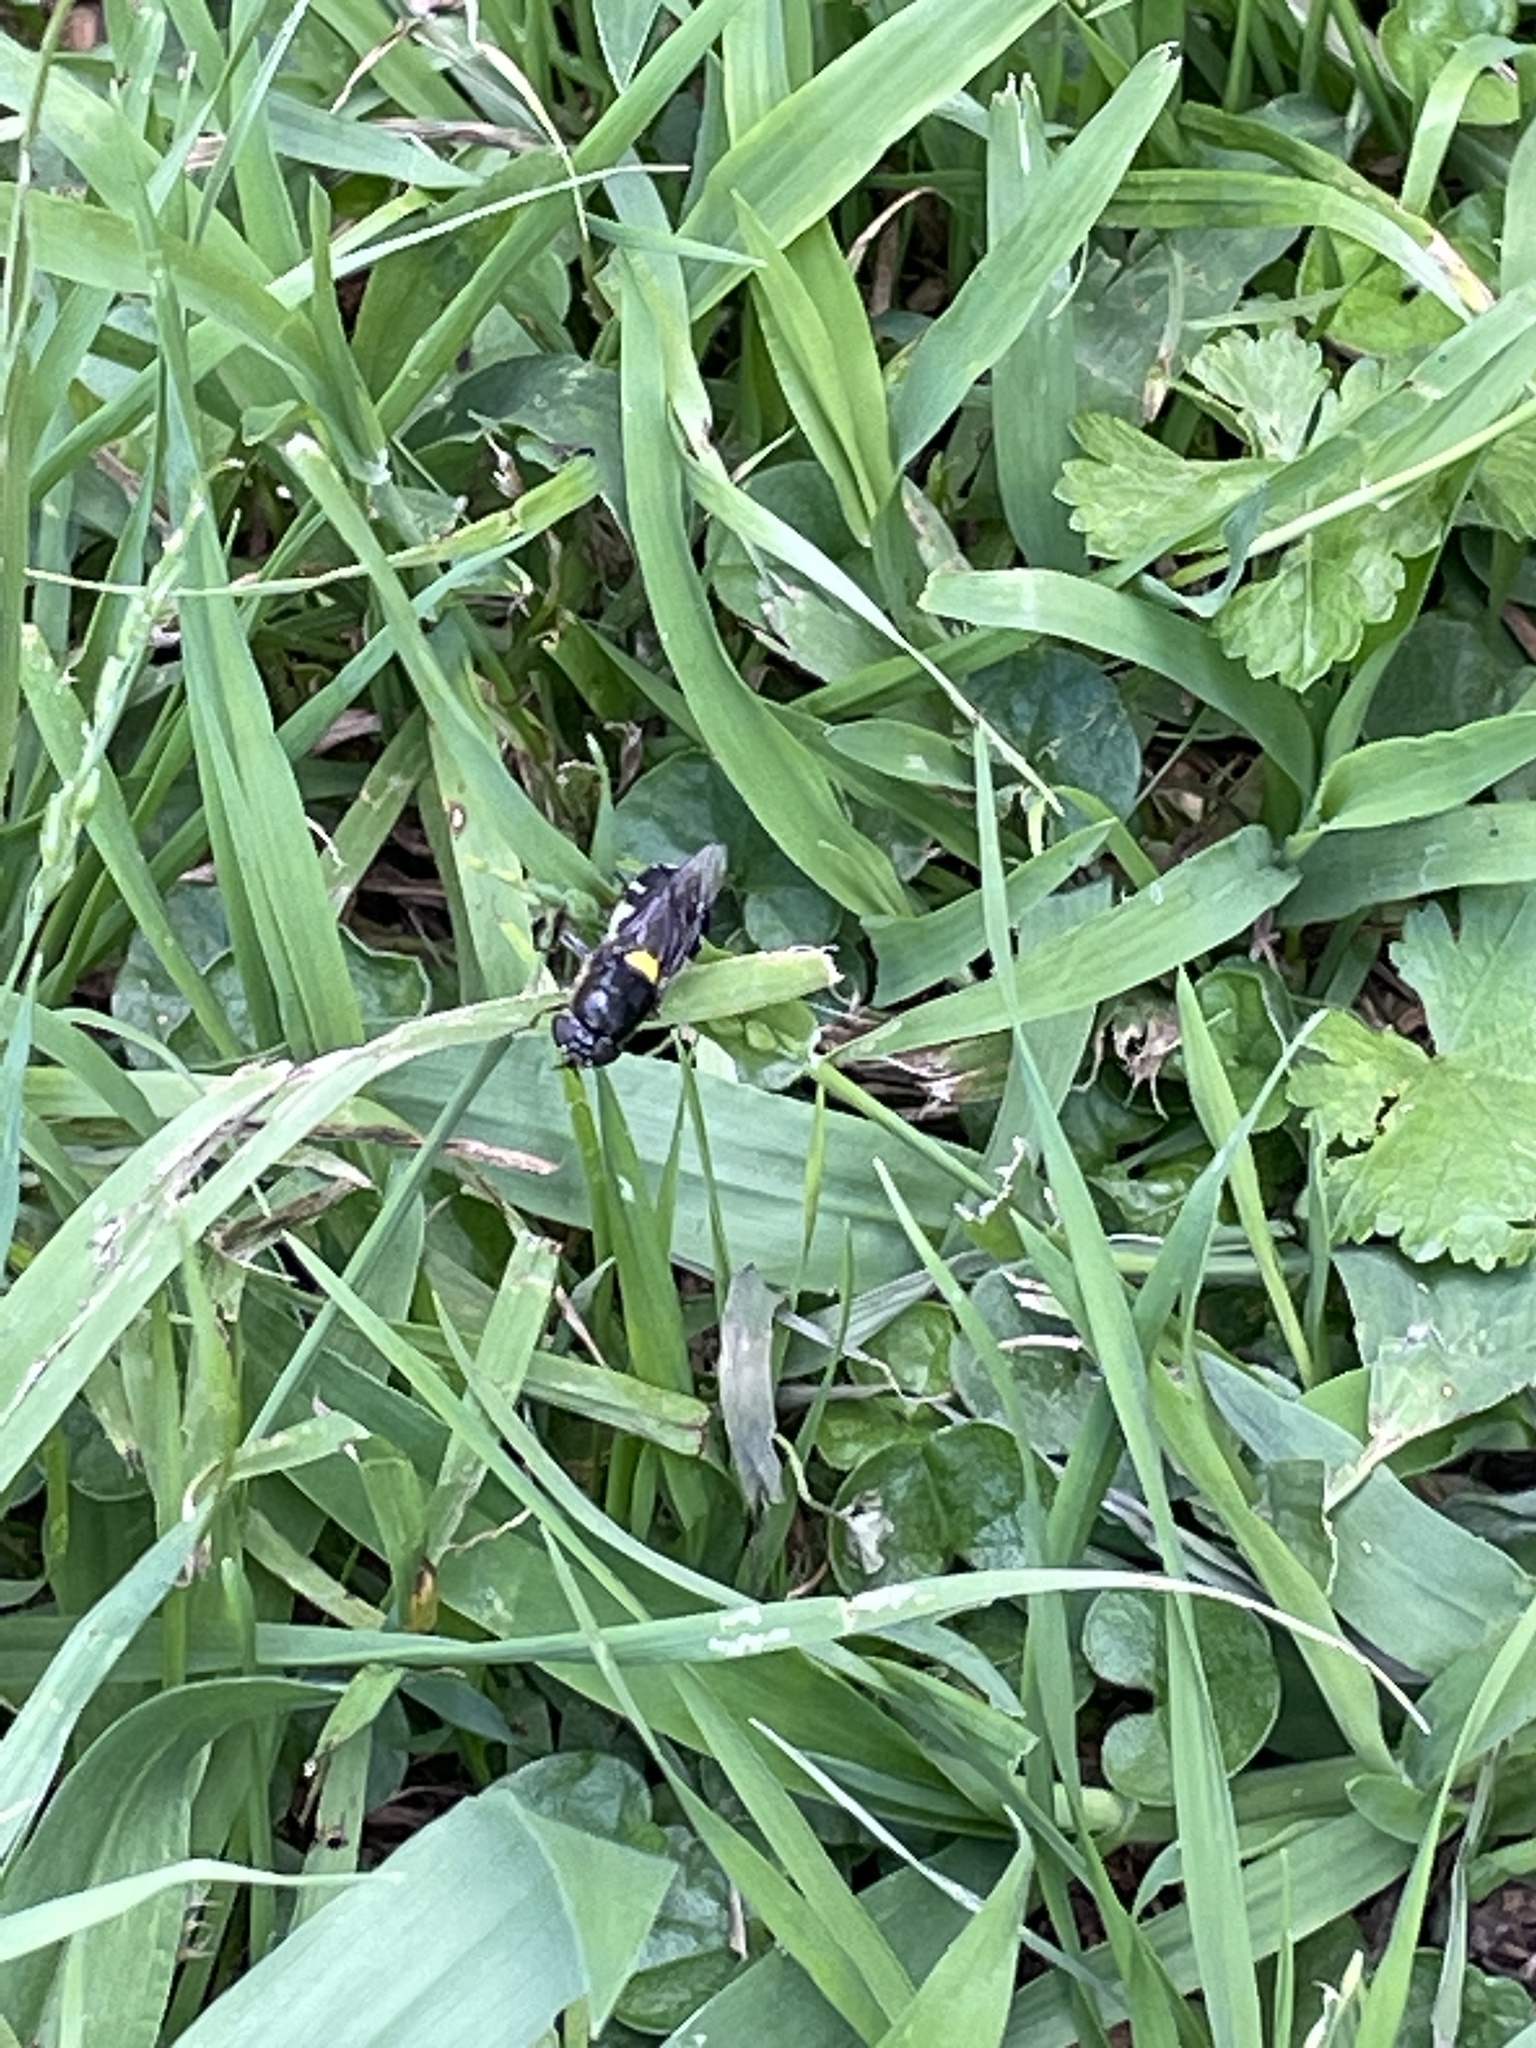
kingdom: Animalia
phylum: Arthropoda
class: Insecta
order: Diptera
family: Stratiomyidae
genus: Odontomyia
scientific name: Odontomyia hunteri
